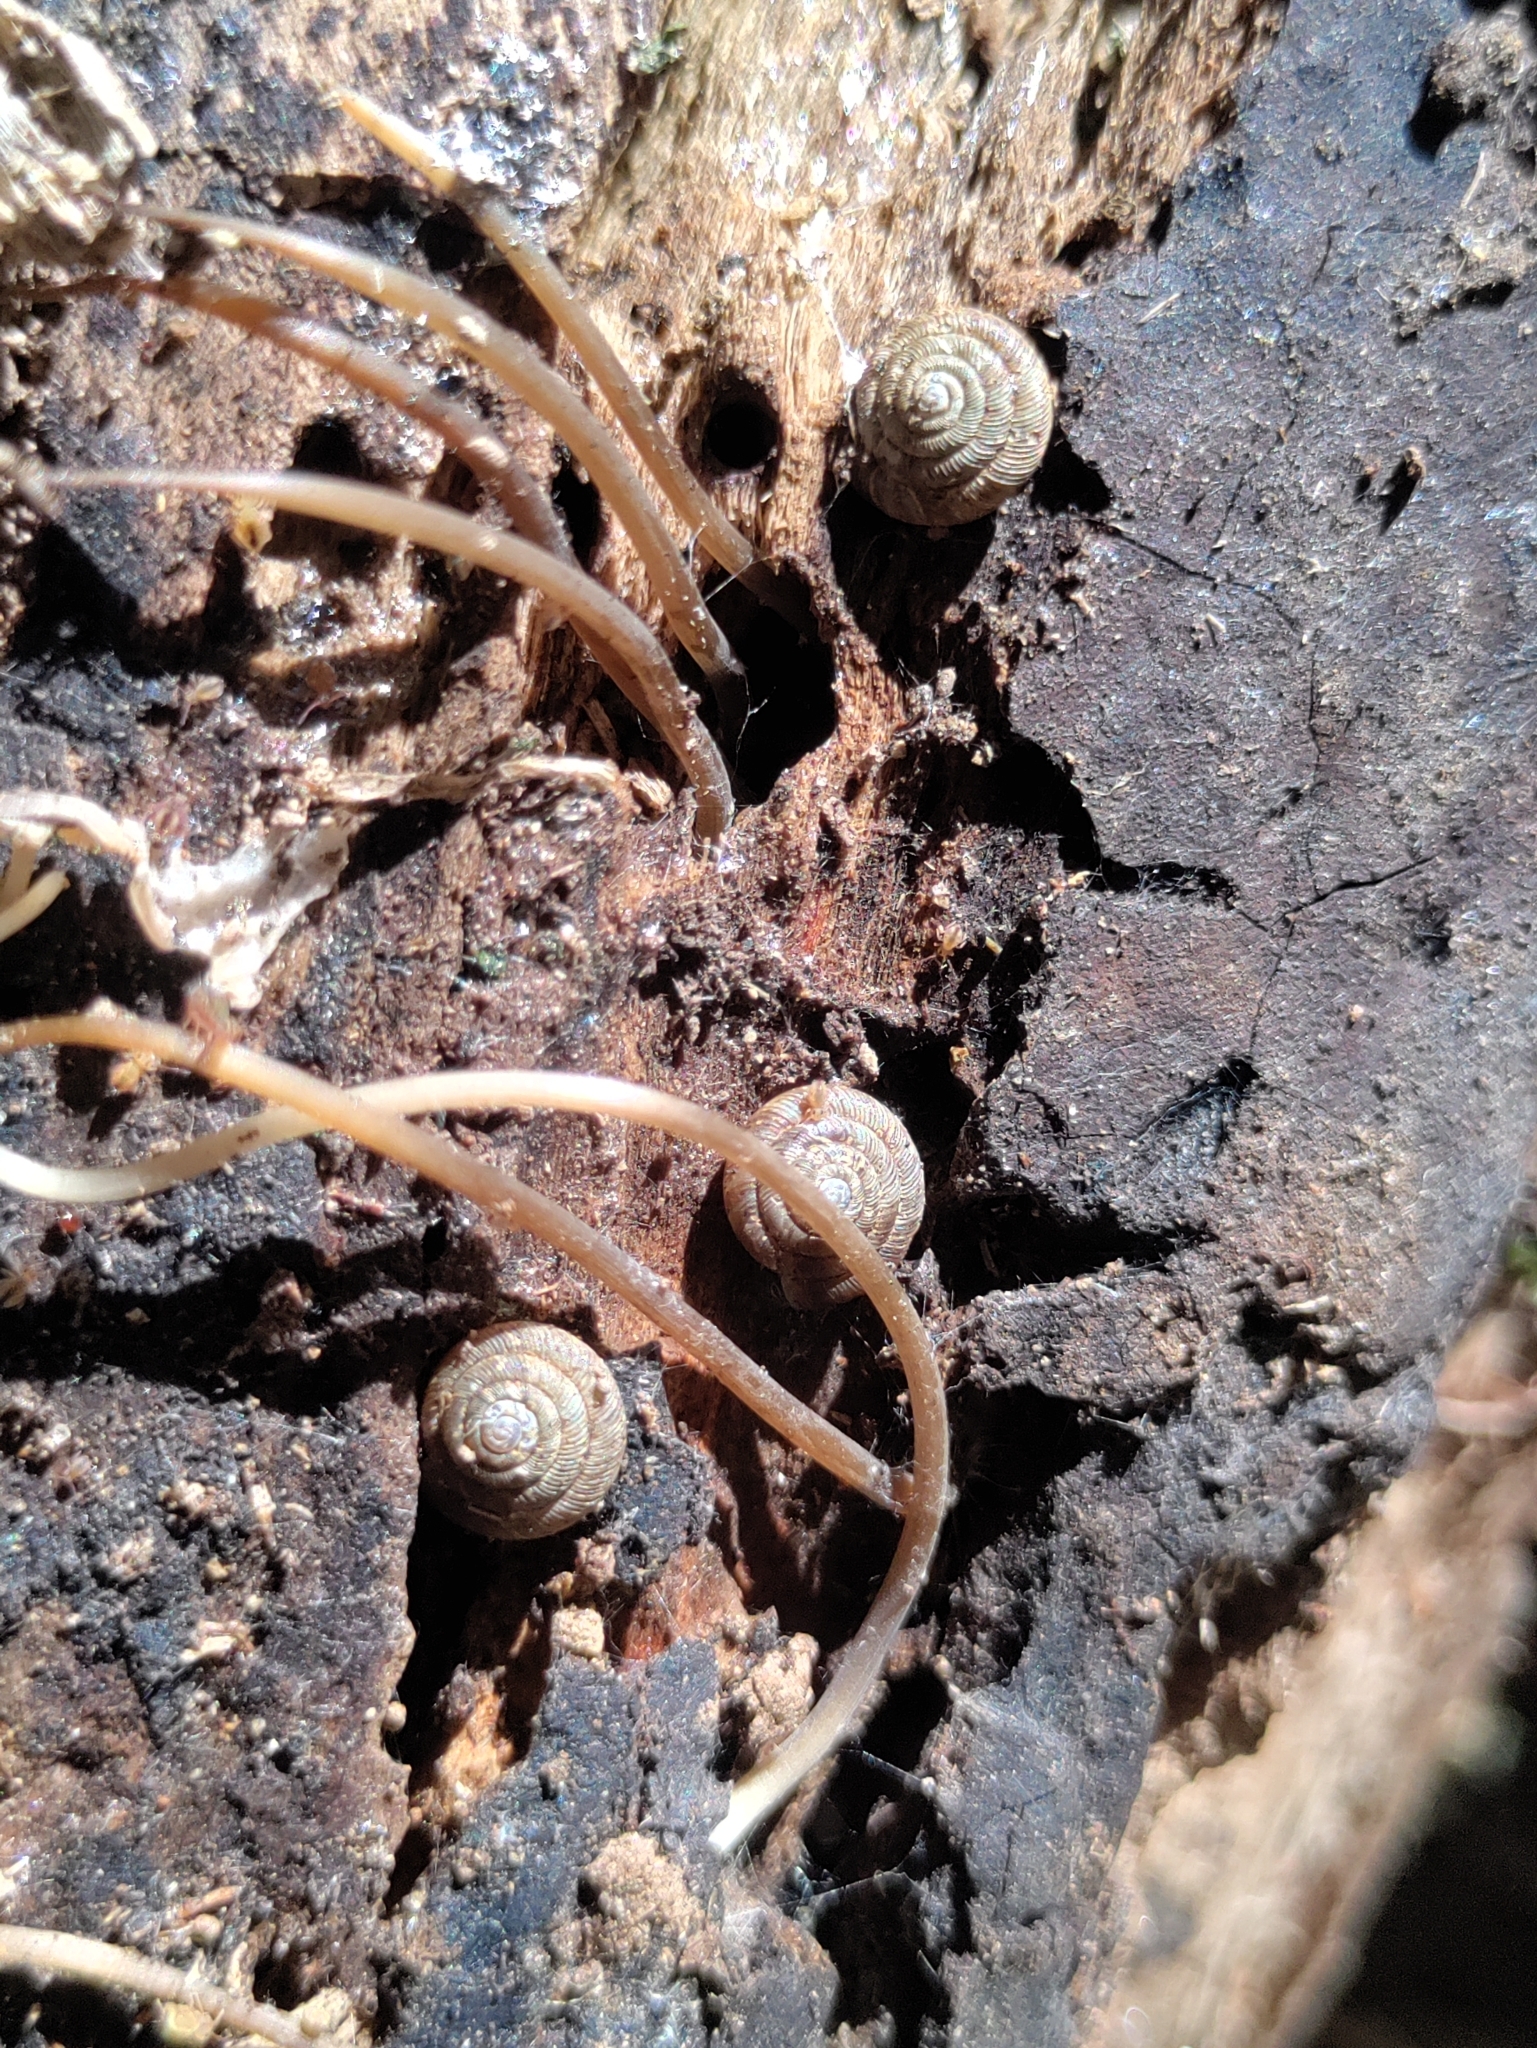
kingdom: Animalia
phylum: Mollusca
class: Gastropoda
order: Stylommatophora
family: Discidae
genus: Discus
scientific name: Discus rotundatus
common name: Rounded snail
